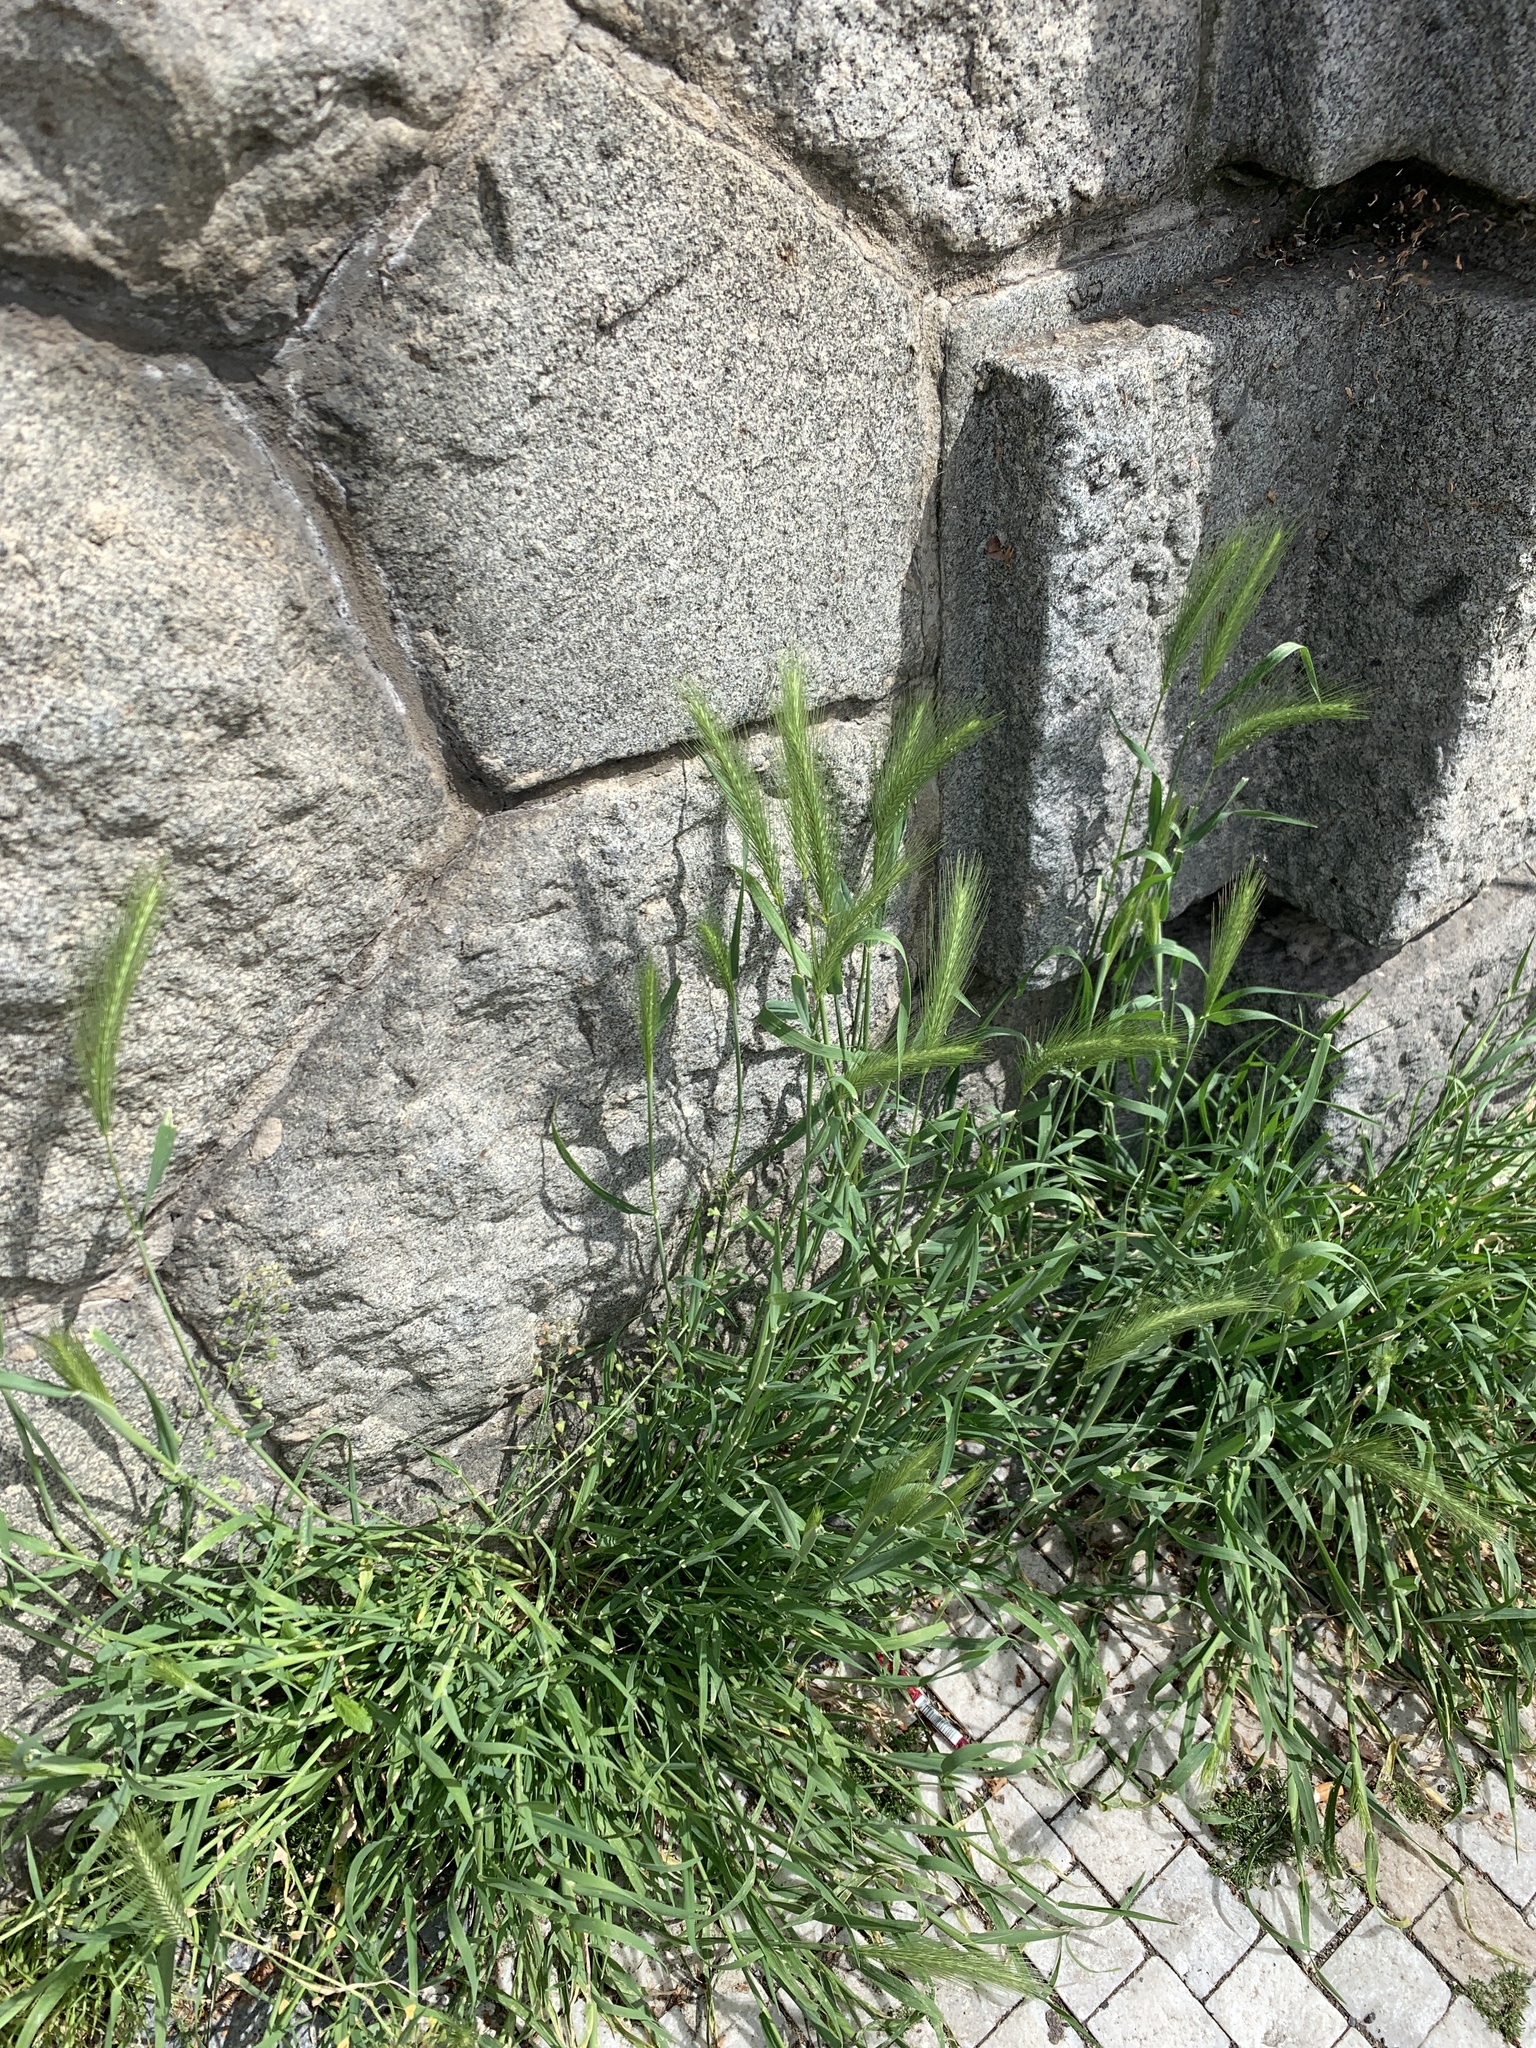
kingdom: Plantae
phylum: Tracheophyta
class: Liliopsida
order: Poales
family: Poaceae
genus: Hordeum
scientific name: Hordeum murinum
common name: Wall barley
